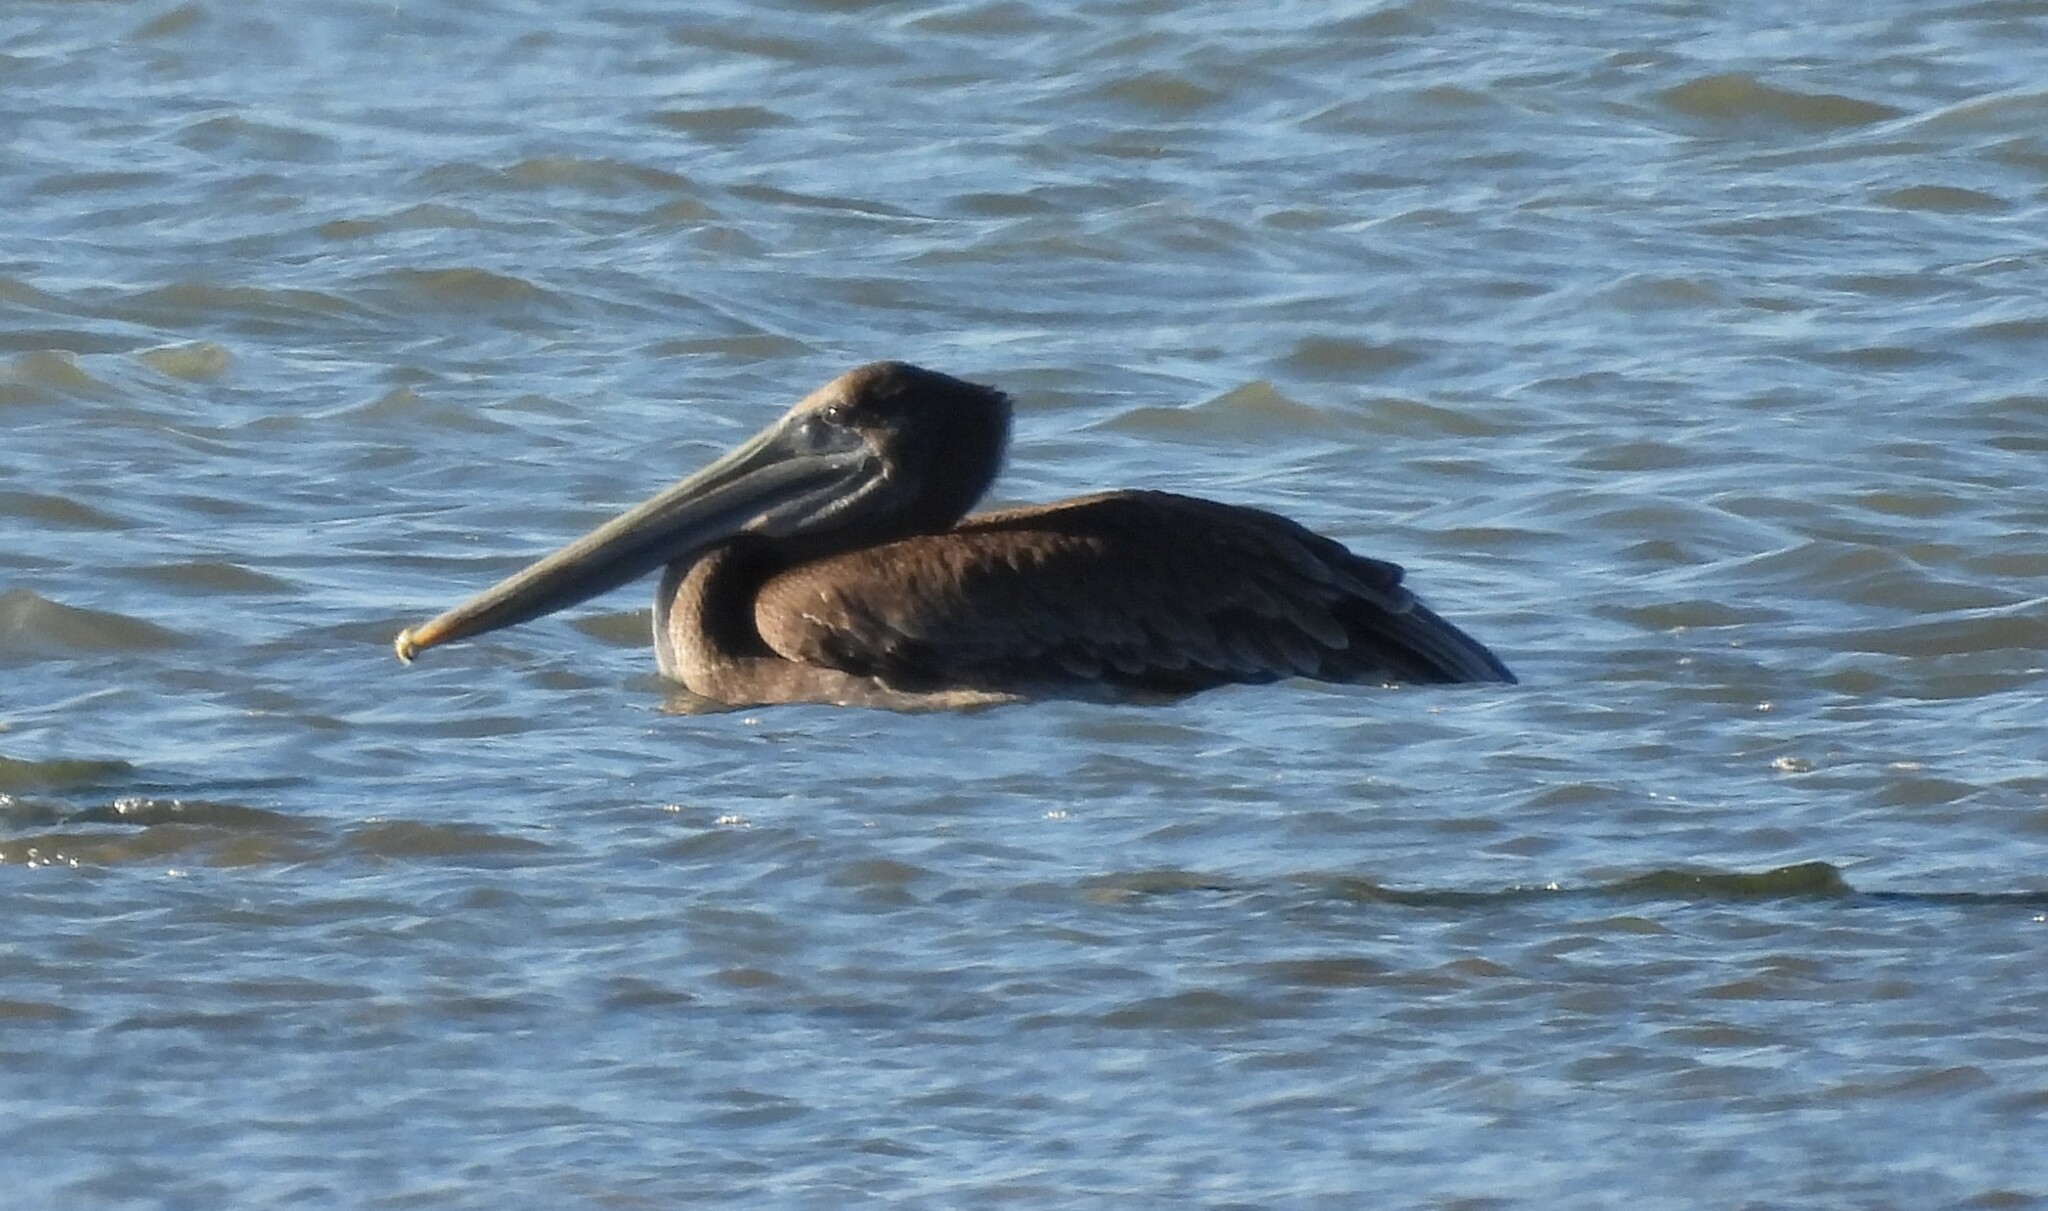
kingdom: Animalia
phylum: Chordata
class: Aves
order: Pelecaniformes
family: Pelecanidae
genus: Pelecanus
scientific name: Pelecanus occidentalis
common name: Brown pelican
